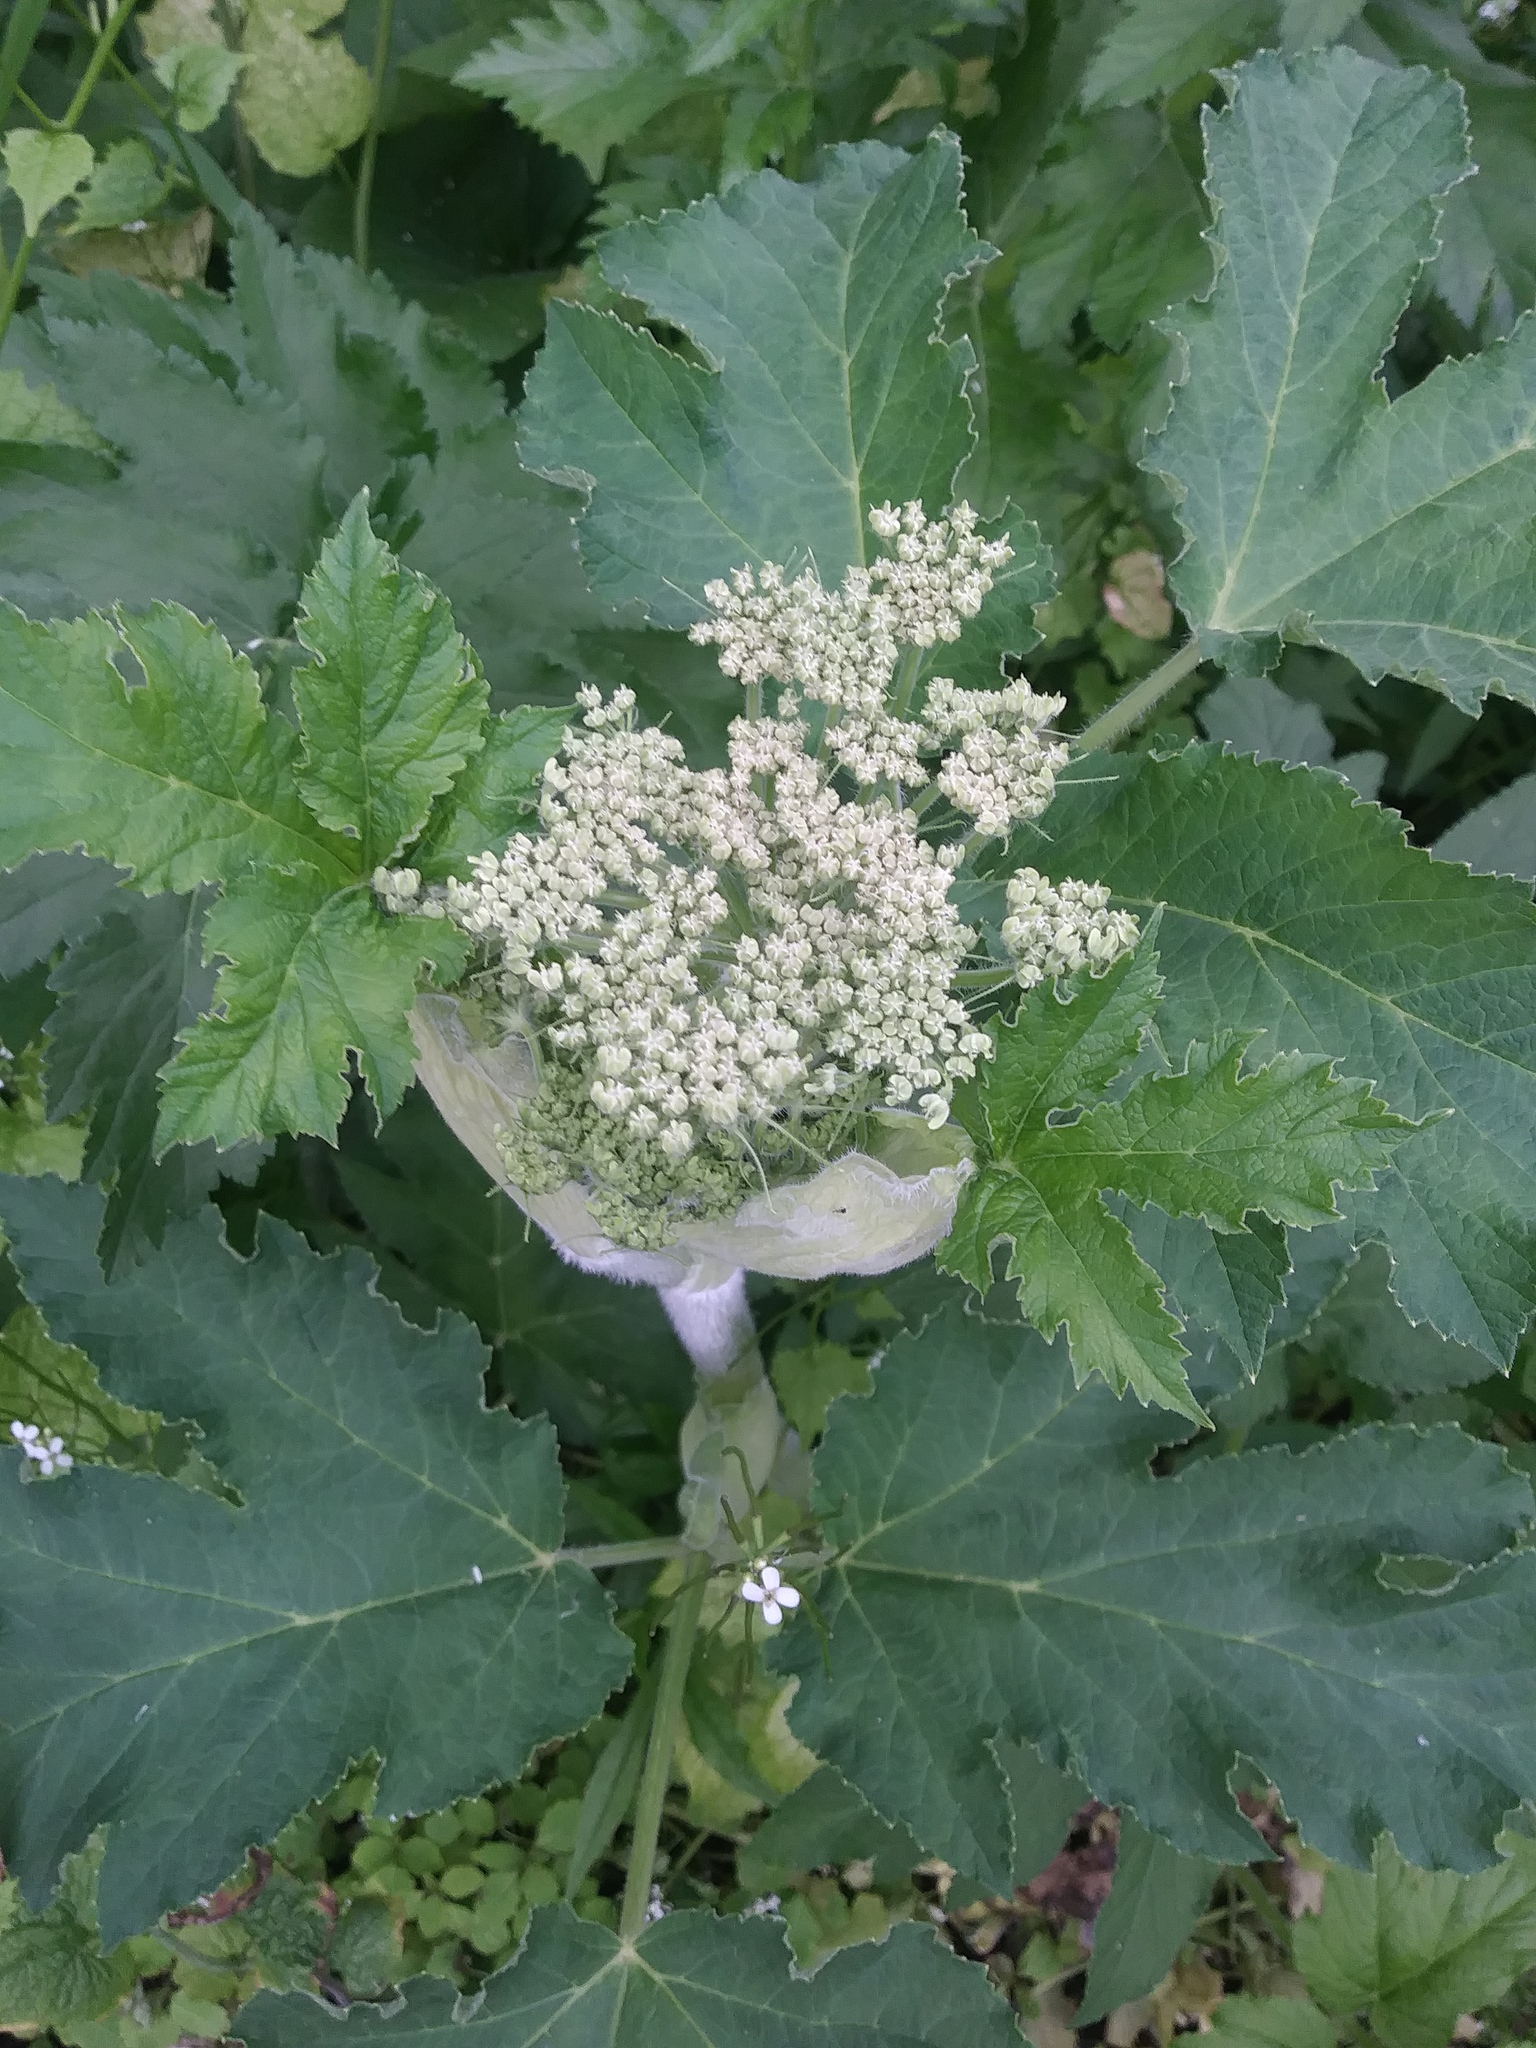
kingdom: Plantae
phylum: Tracheophyta
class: Magnoliopsida
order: Apiales
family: Apiaceae
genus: Heracleum
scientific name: Heracleum maximum
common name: American cow parsnip
